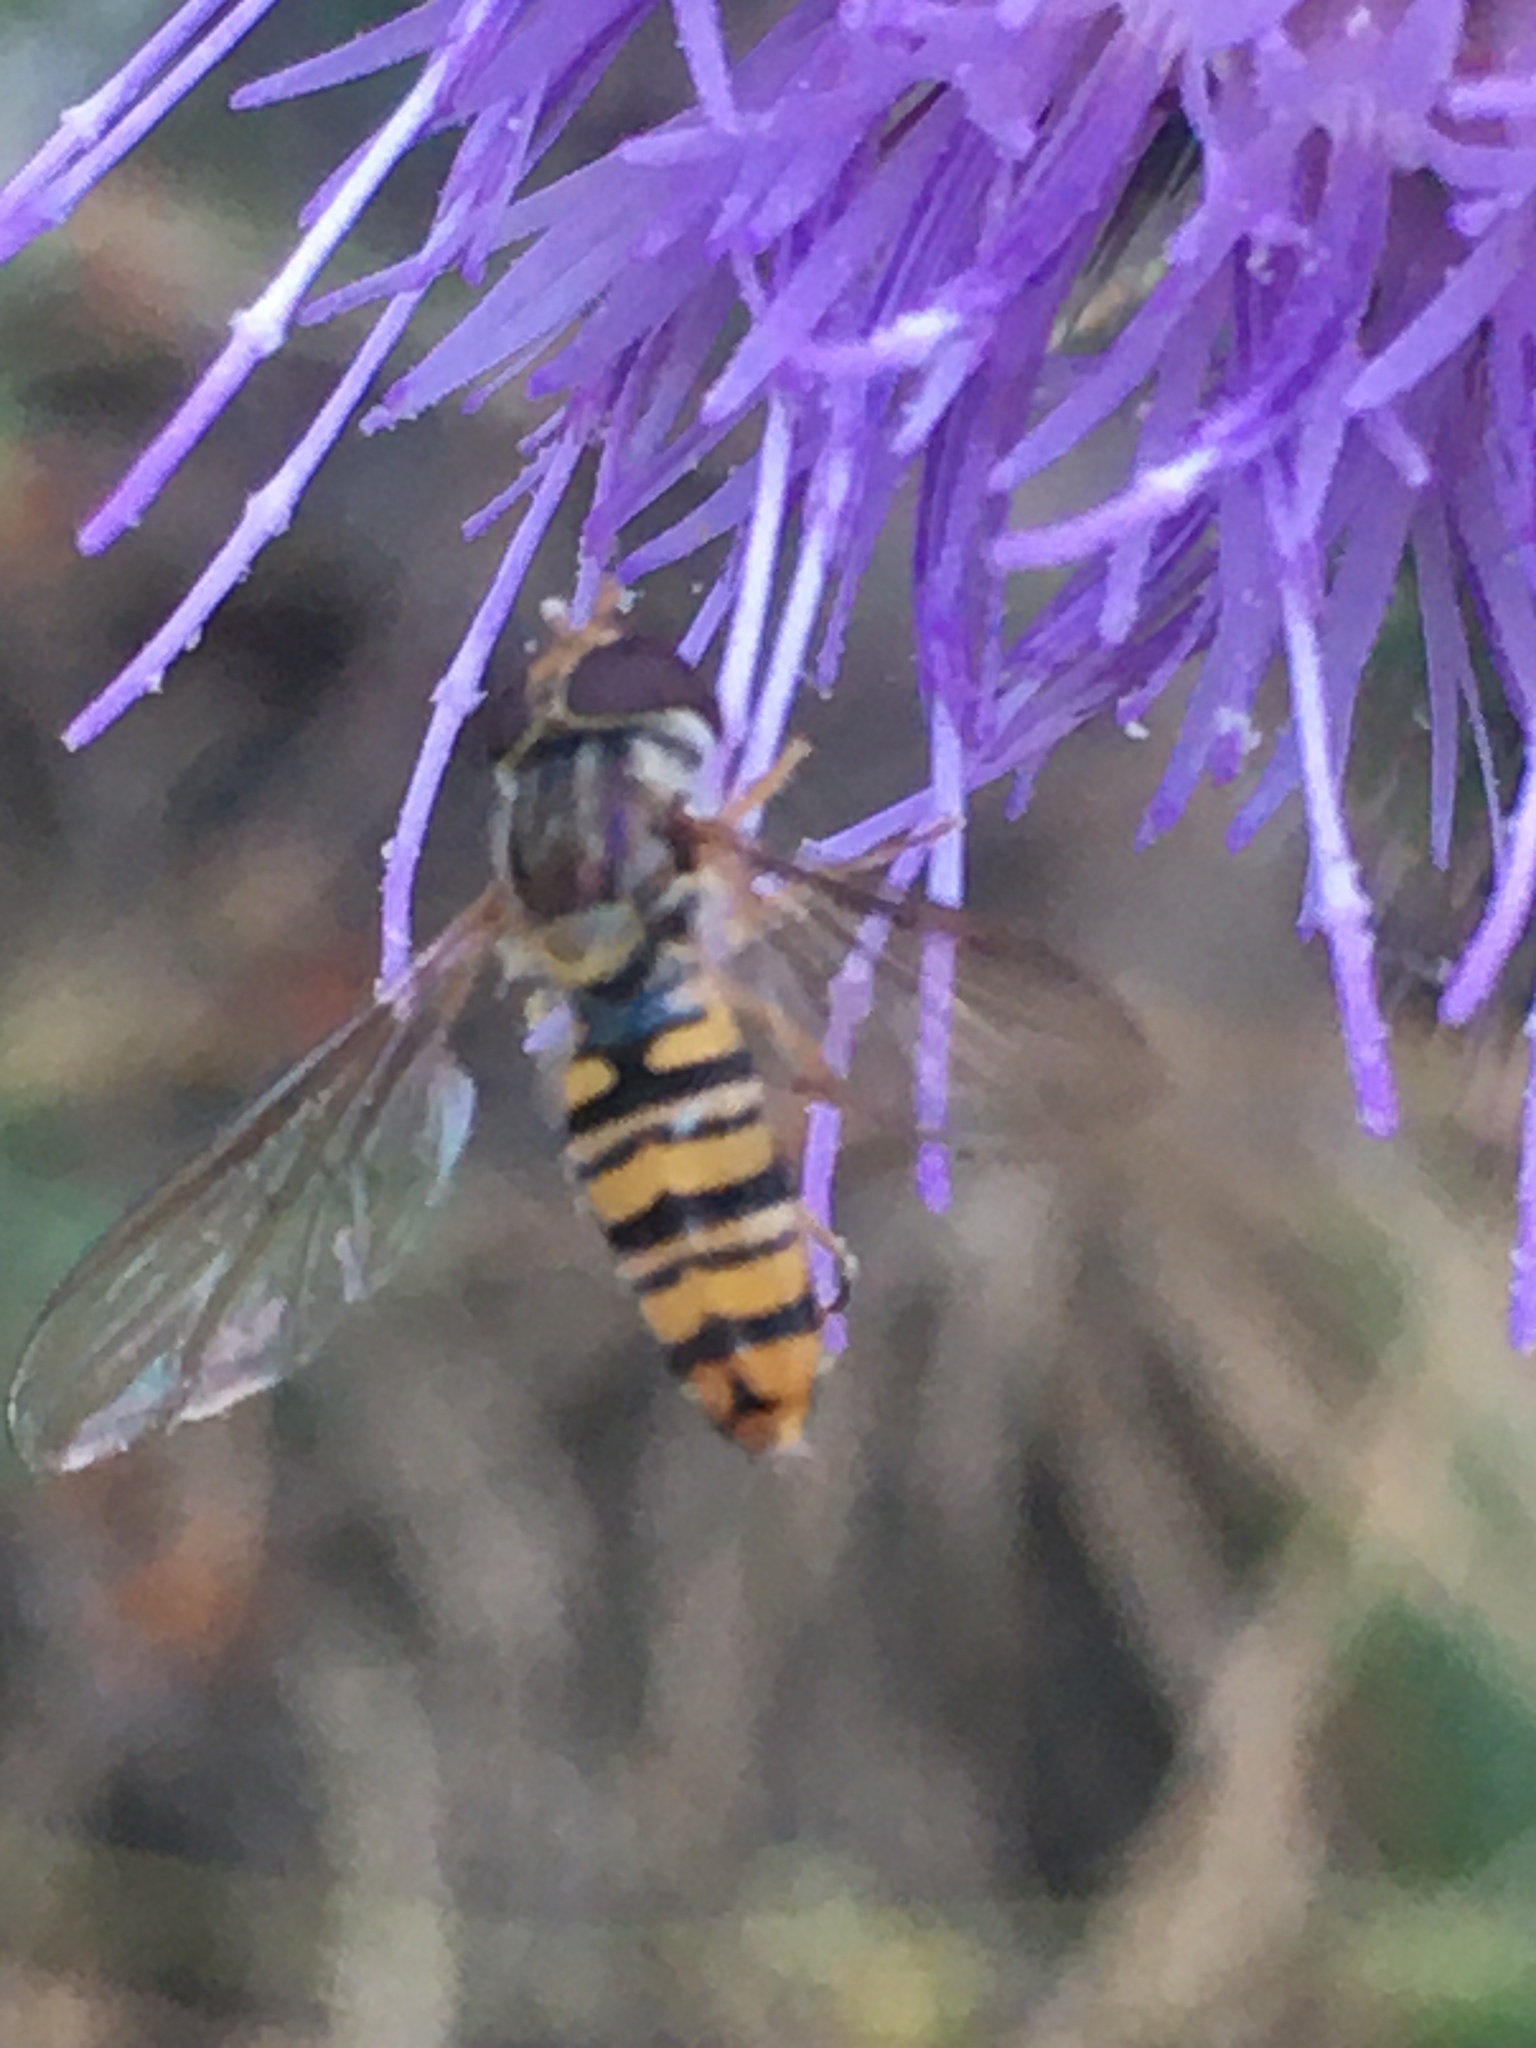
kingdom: Animalia
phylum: Arthropoda
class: Insecta
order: Diptera
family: Syrphidae
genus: Episyrphus
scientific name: Episyrphus balteatus
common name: Marmalade hoverfly
